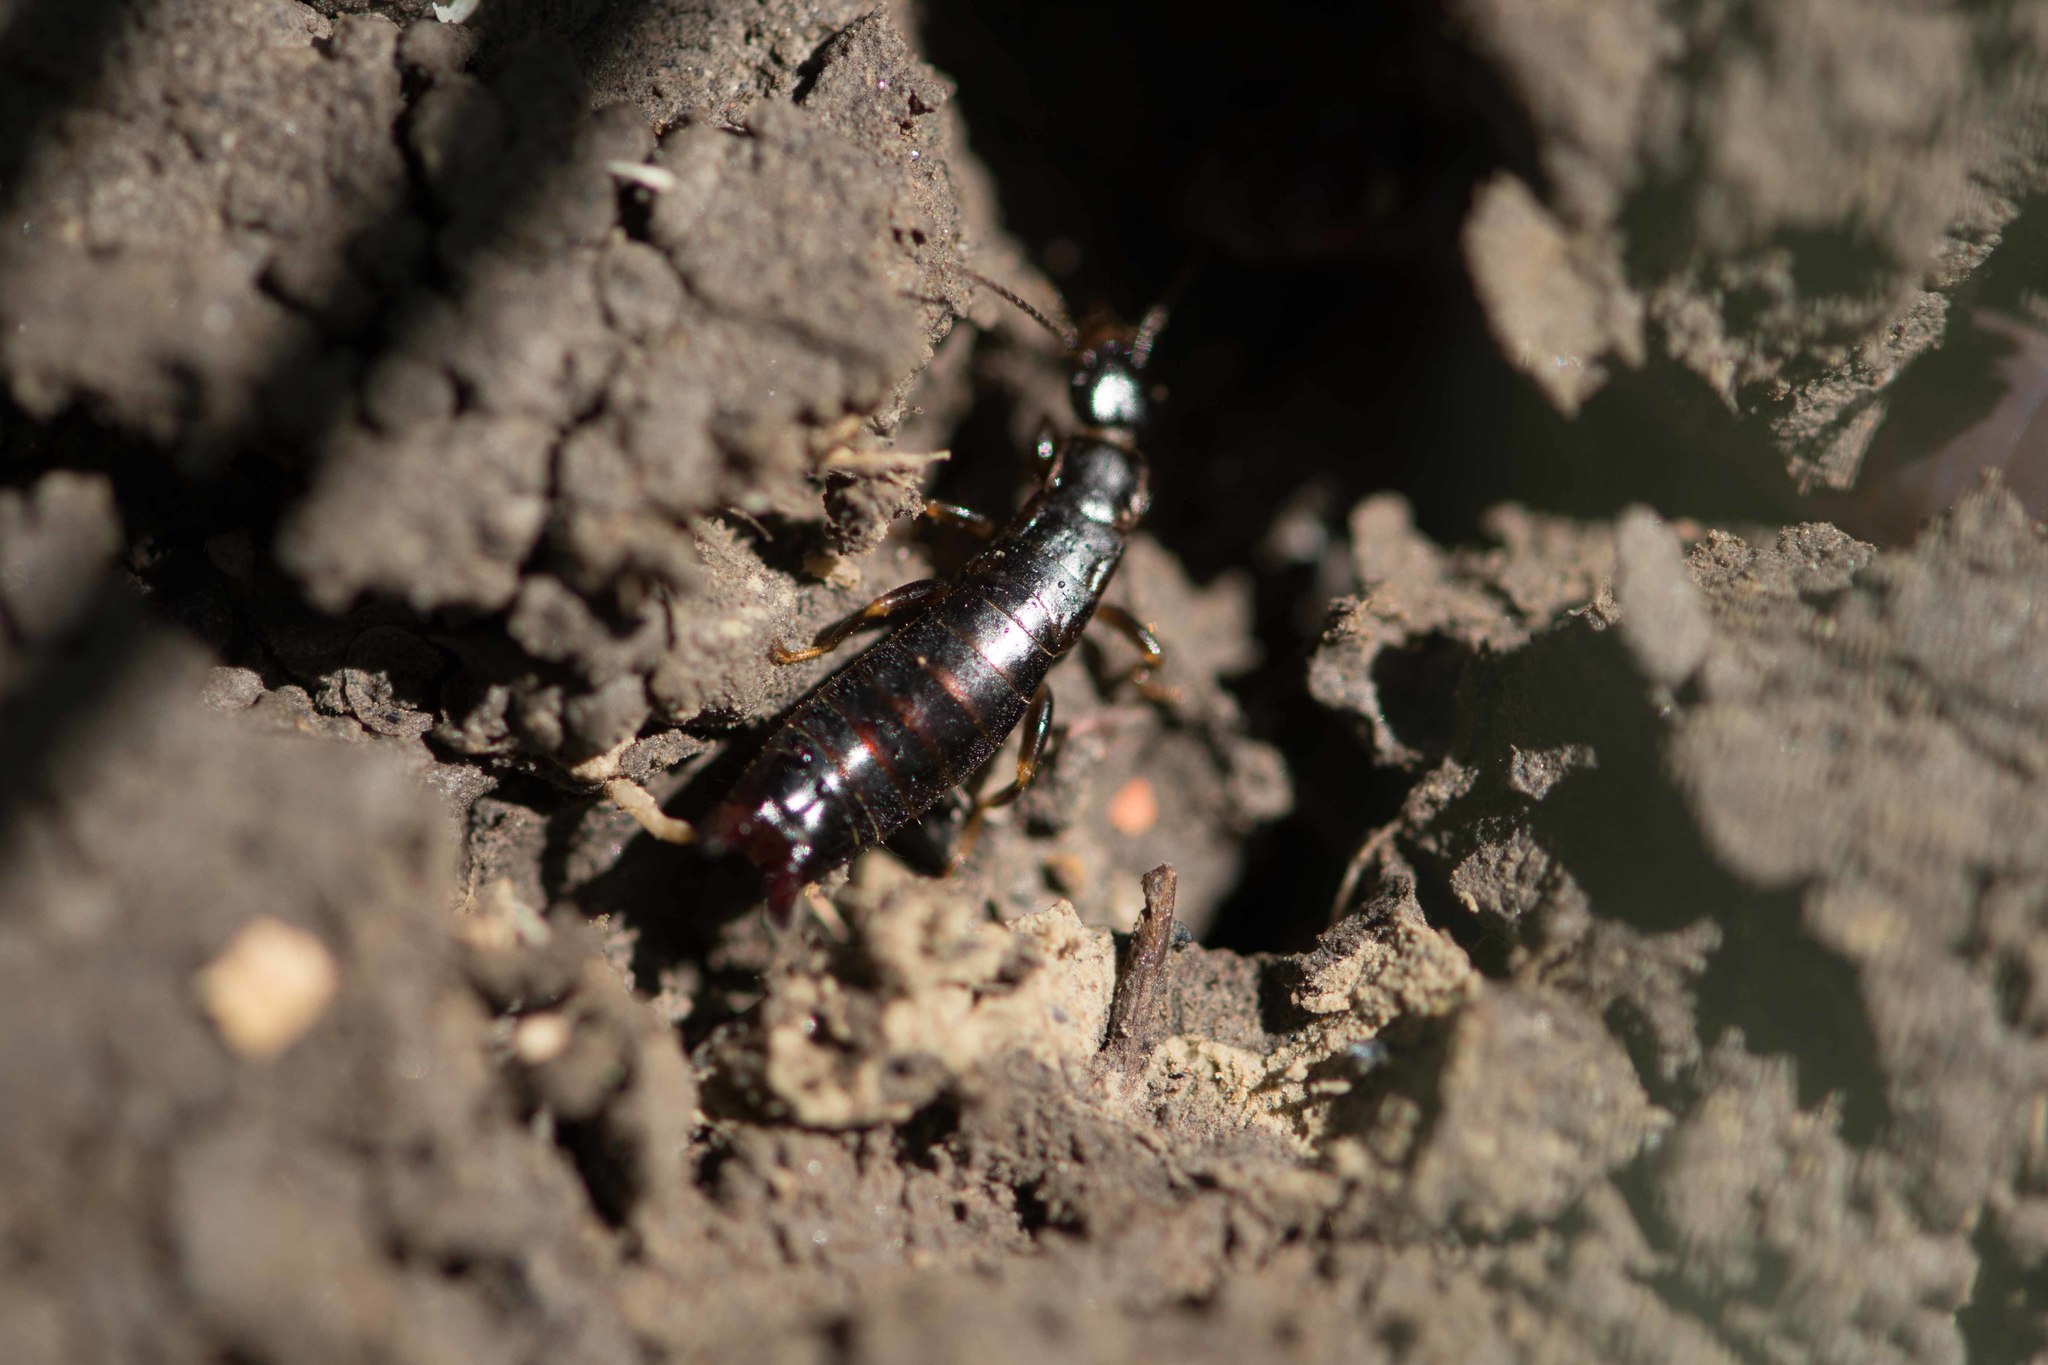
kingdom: Animalia
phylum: Arthropoda
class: Insecta
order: Dermaptera
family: Anisolabididae
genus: Euborellia
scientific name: Euborellia moesta
